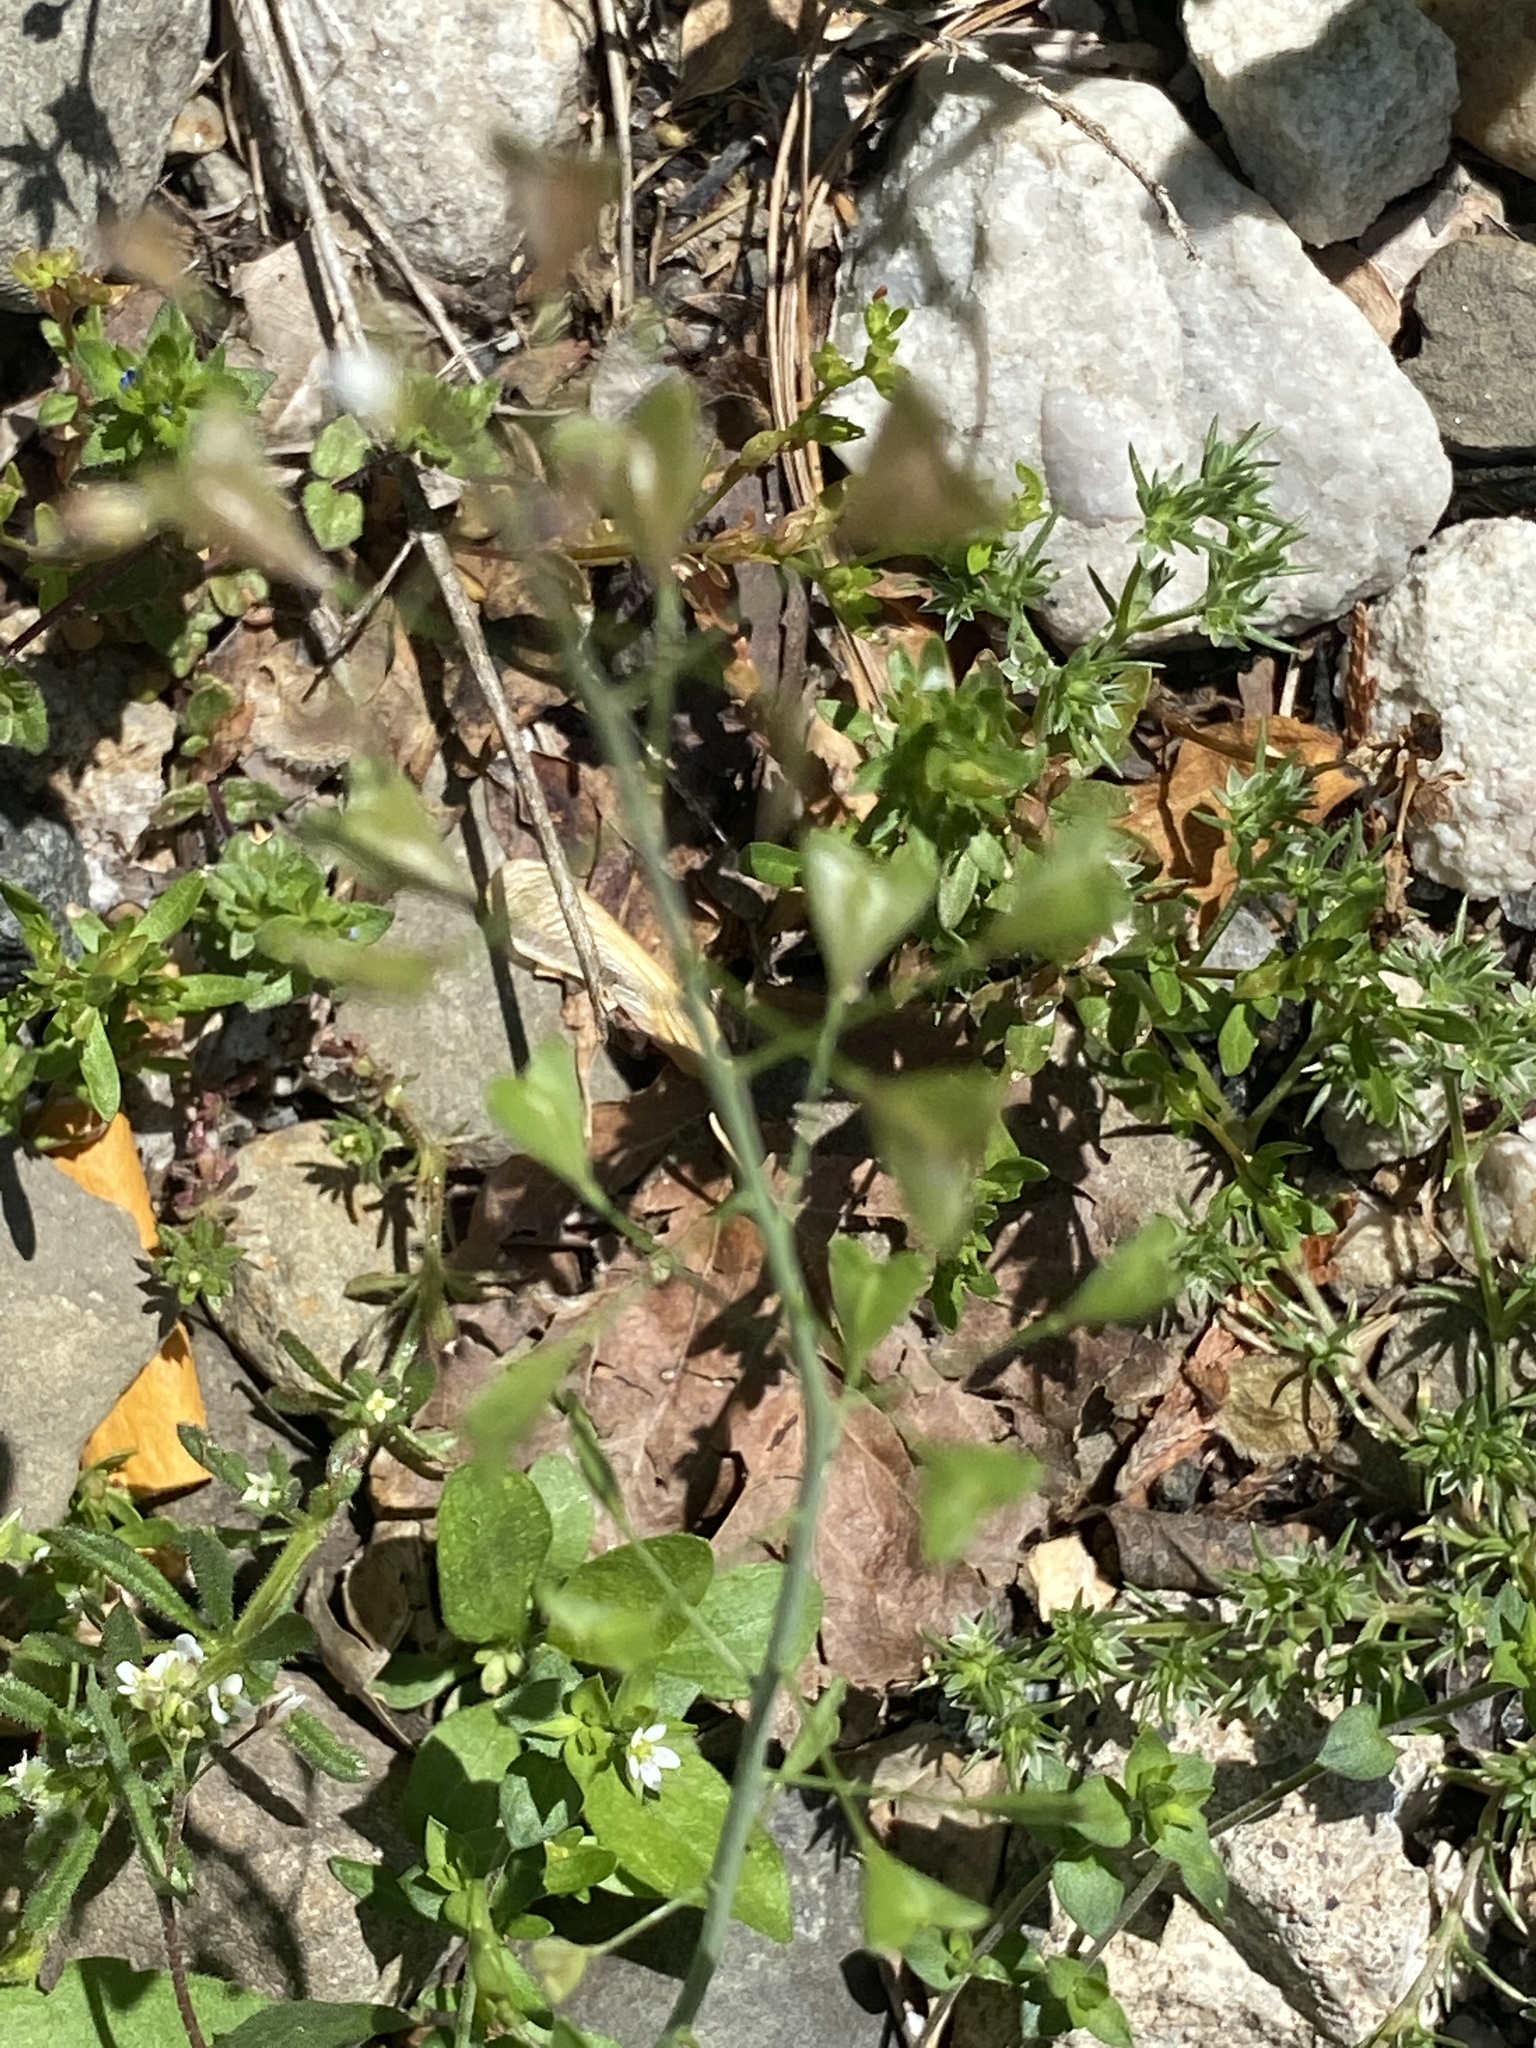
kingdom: Plantae
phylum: Tracheophyta
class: Magnoliopsida
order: Brassicales
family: Brassicaceae
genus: Capsella
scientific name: Capsella bursa-pastoris
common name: Shepherd's purse
